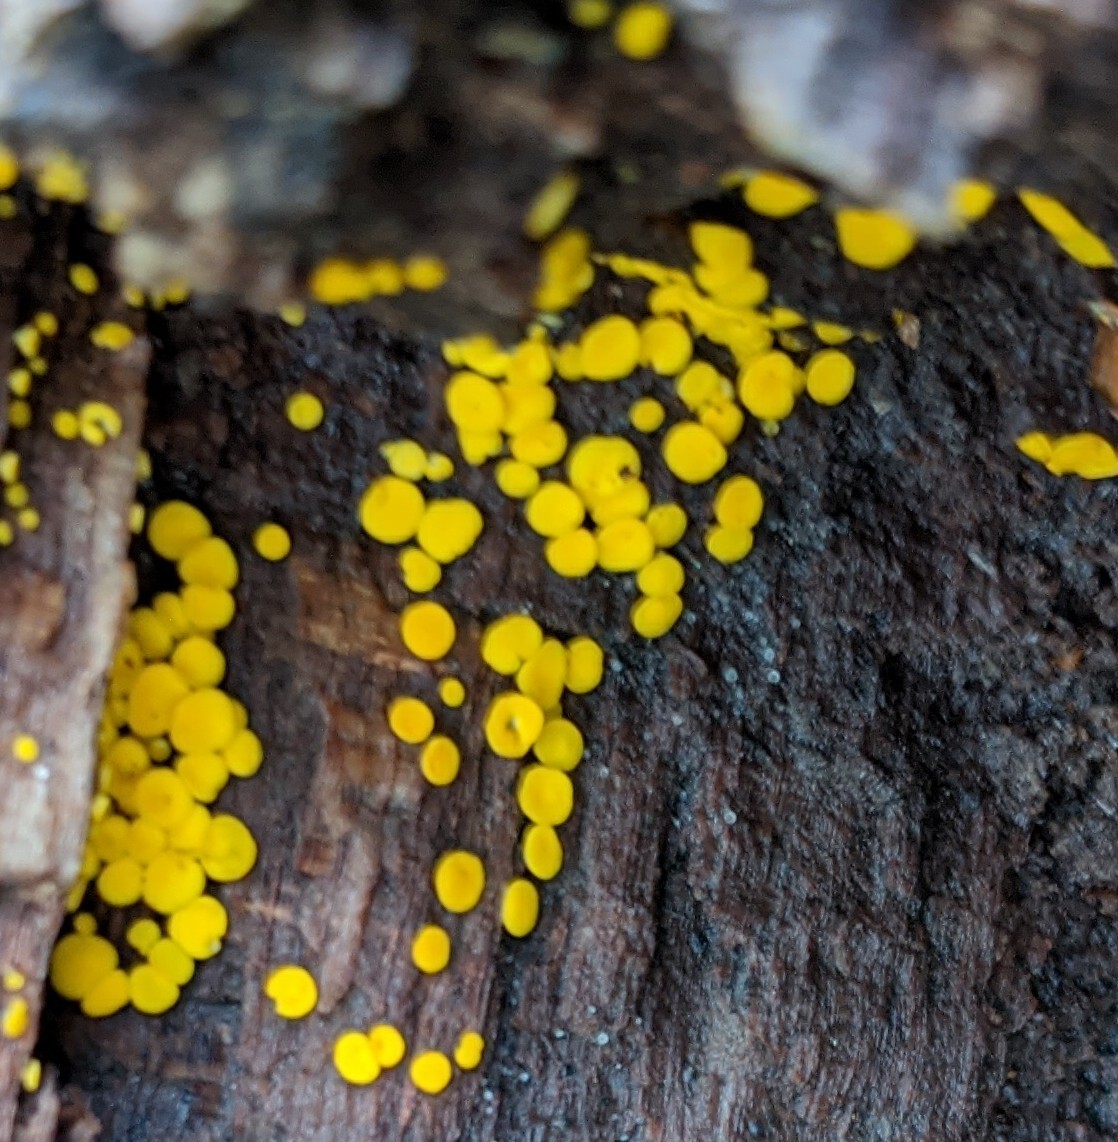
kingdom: Fungi
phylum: Ascomycota
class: Leotiomycetes
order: Helotiales
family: Pezizellaceae
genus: Calycina
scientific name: Calycina citrina
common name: Yellow fairy cups
